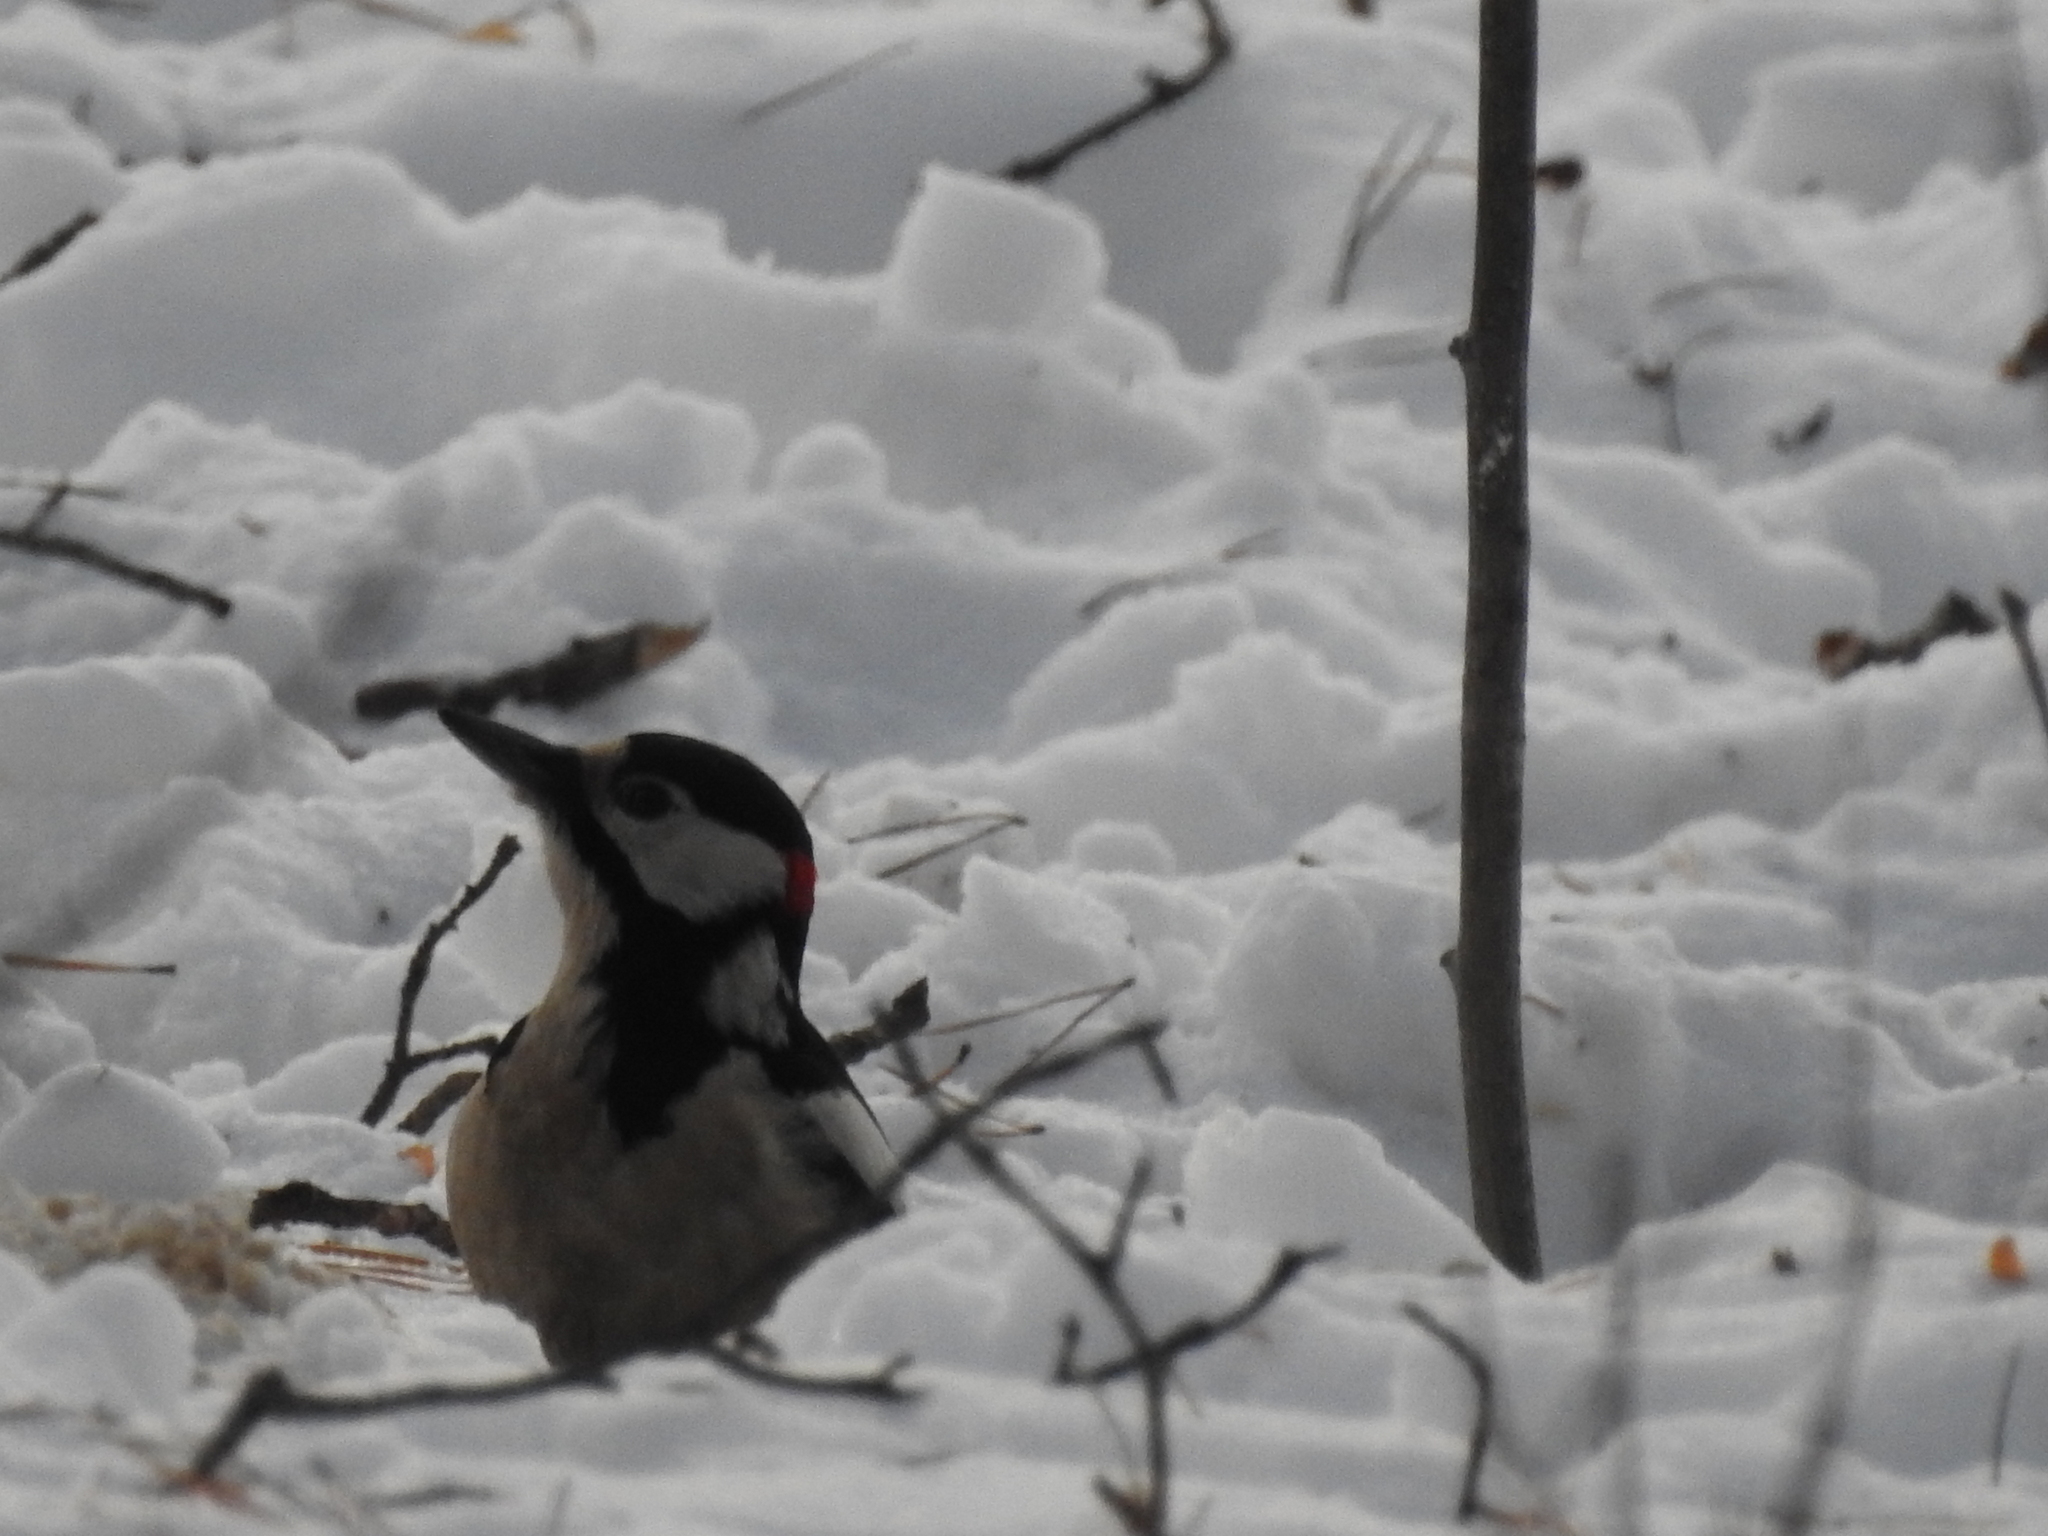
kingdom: Animalia
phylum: Chordata
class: Aves
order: Piciformes
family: Picidae
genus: Dendrocopos
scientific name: Dendrocopos major
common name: Great spotted woodpecker
